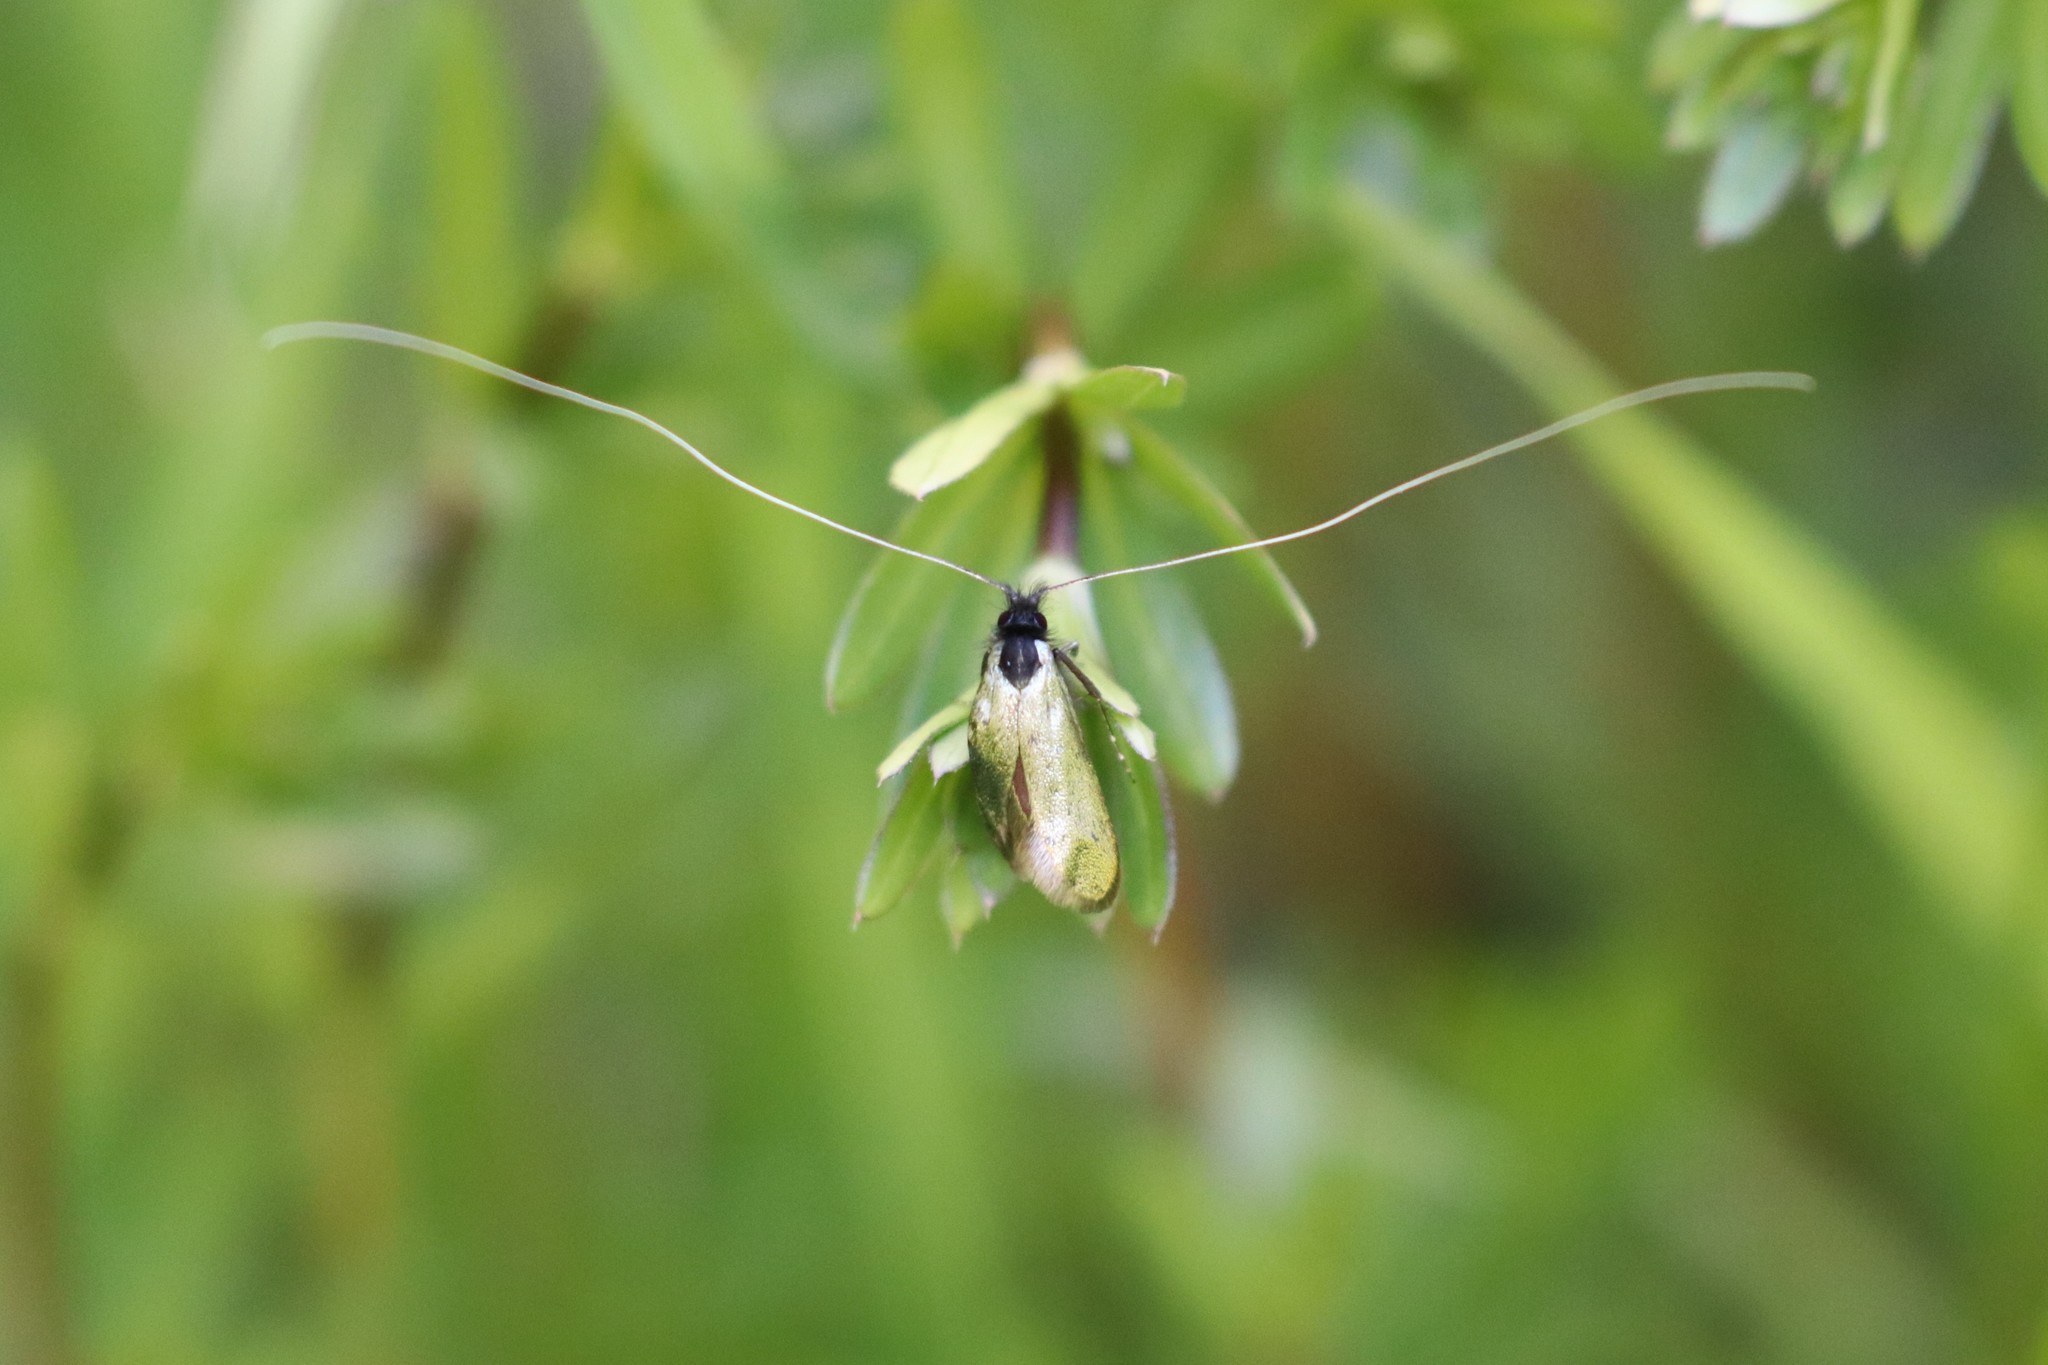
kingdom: Animalia
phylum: Arthropoda
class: Insecta
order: Lepidoptera
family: Adelidae
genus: Adela
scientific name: Adela viridella
